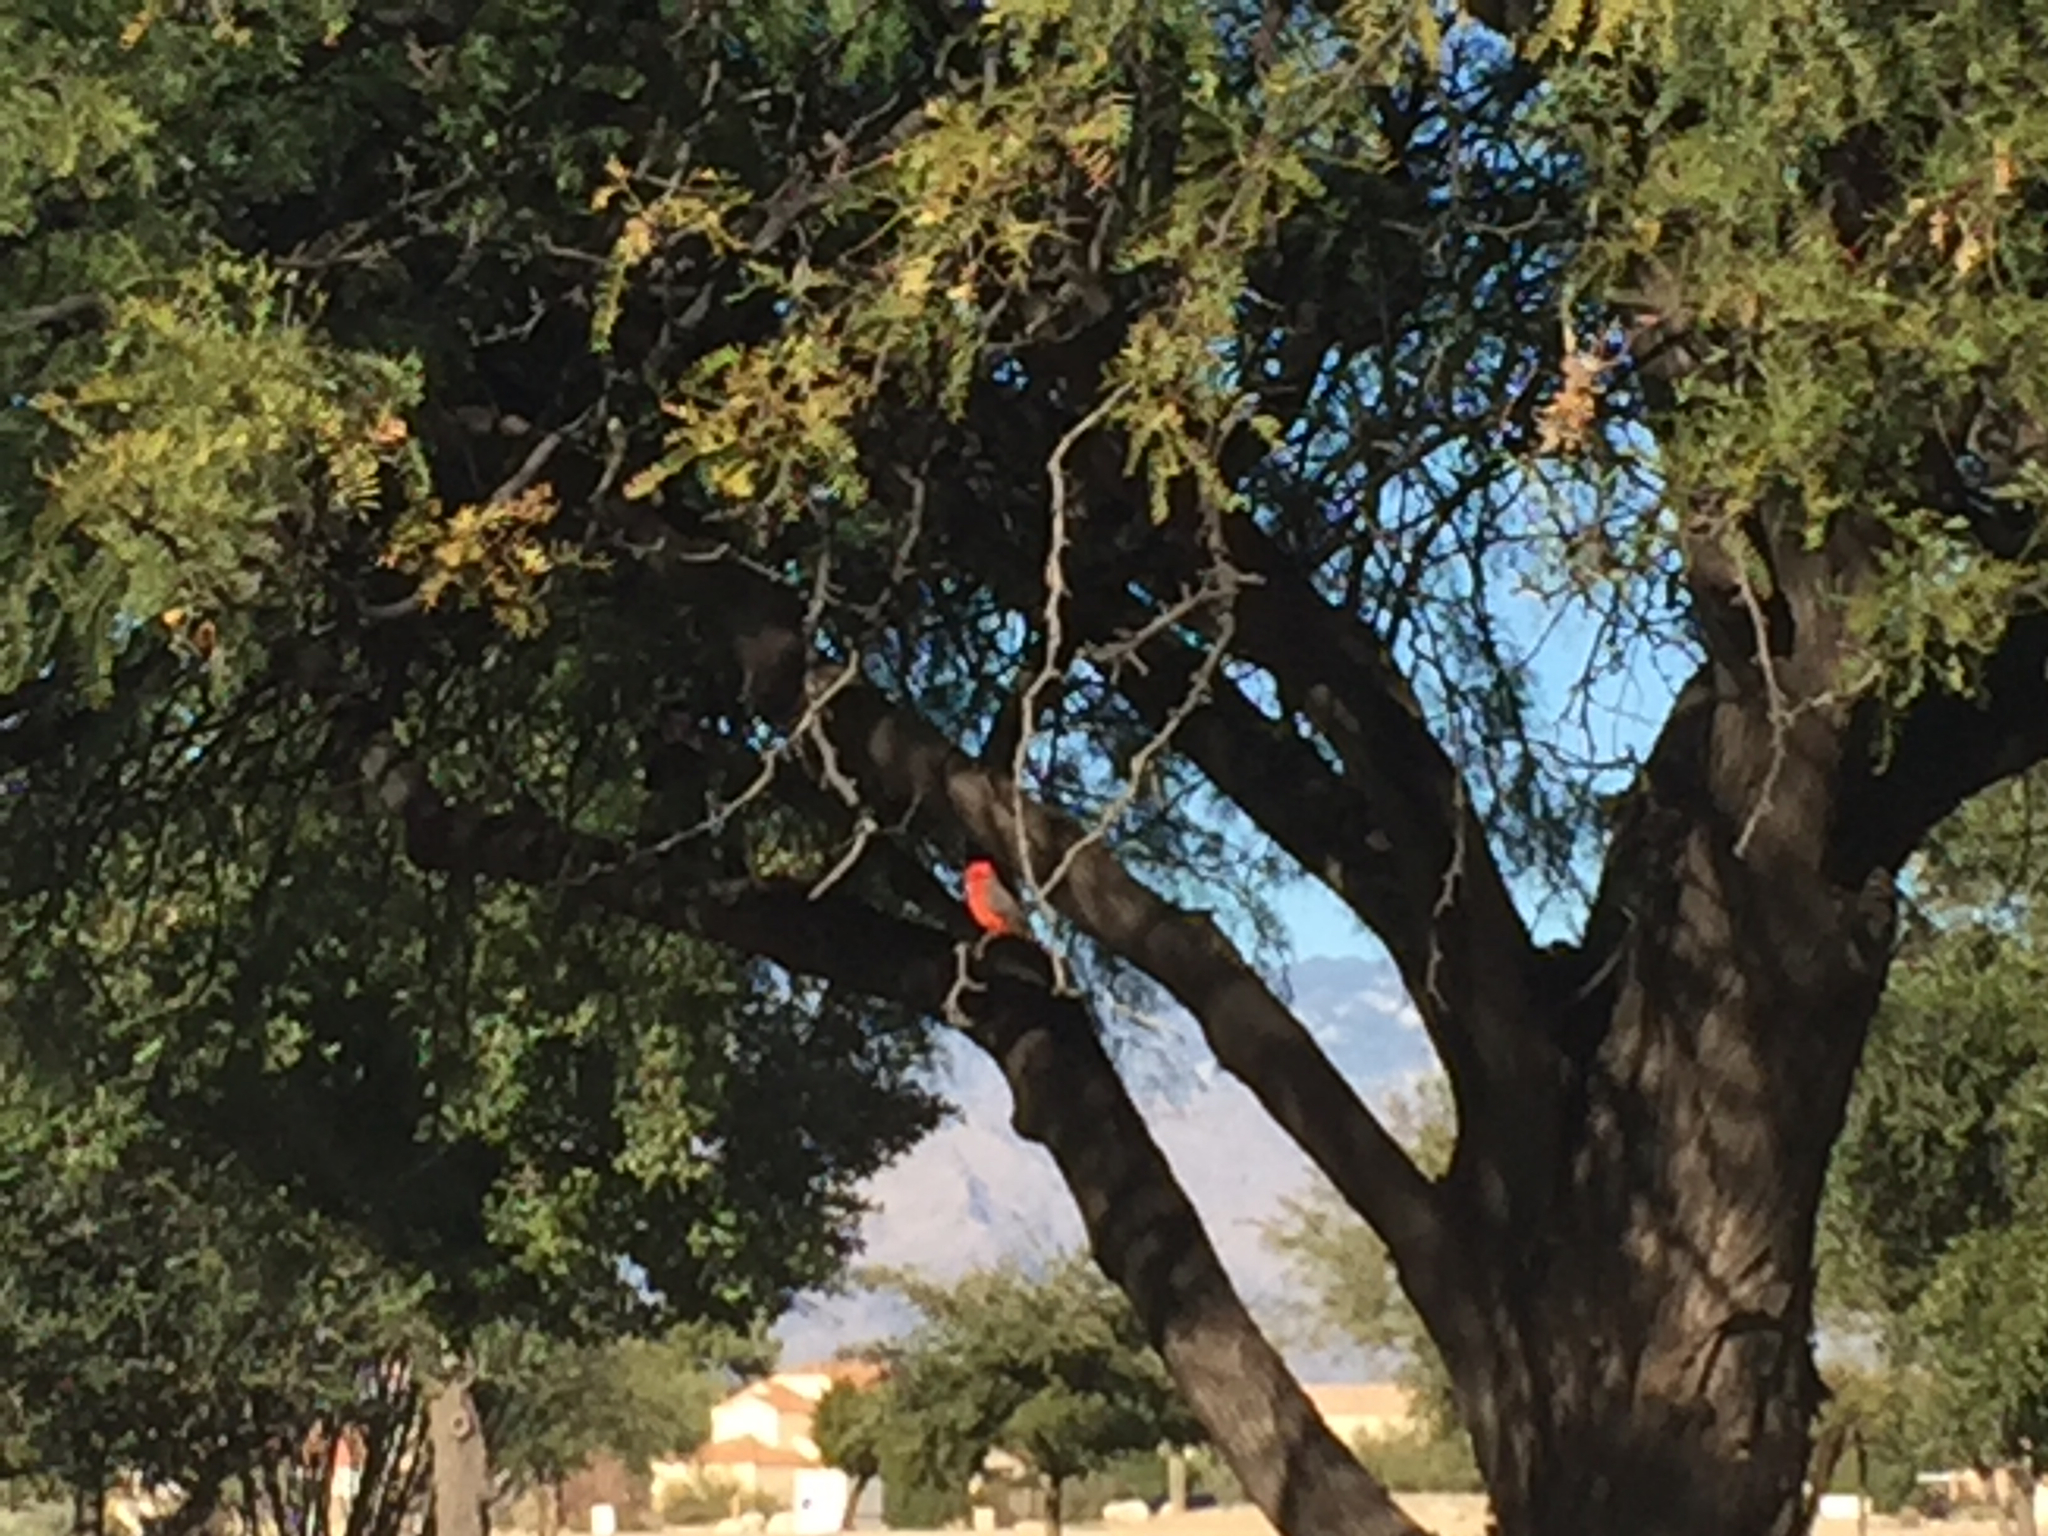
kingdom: Animalia
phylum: Chordata
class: Aves
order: Passeriformes
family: Tyrannidae
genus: Pyrocephalus
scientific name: Pyrocephalus rubinus
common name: Vermilion flycatcher
